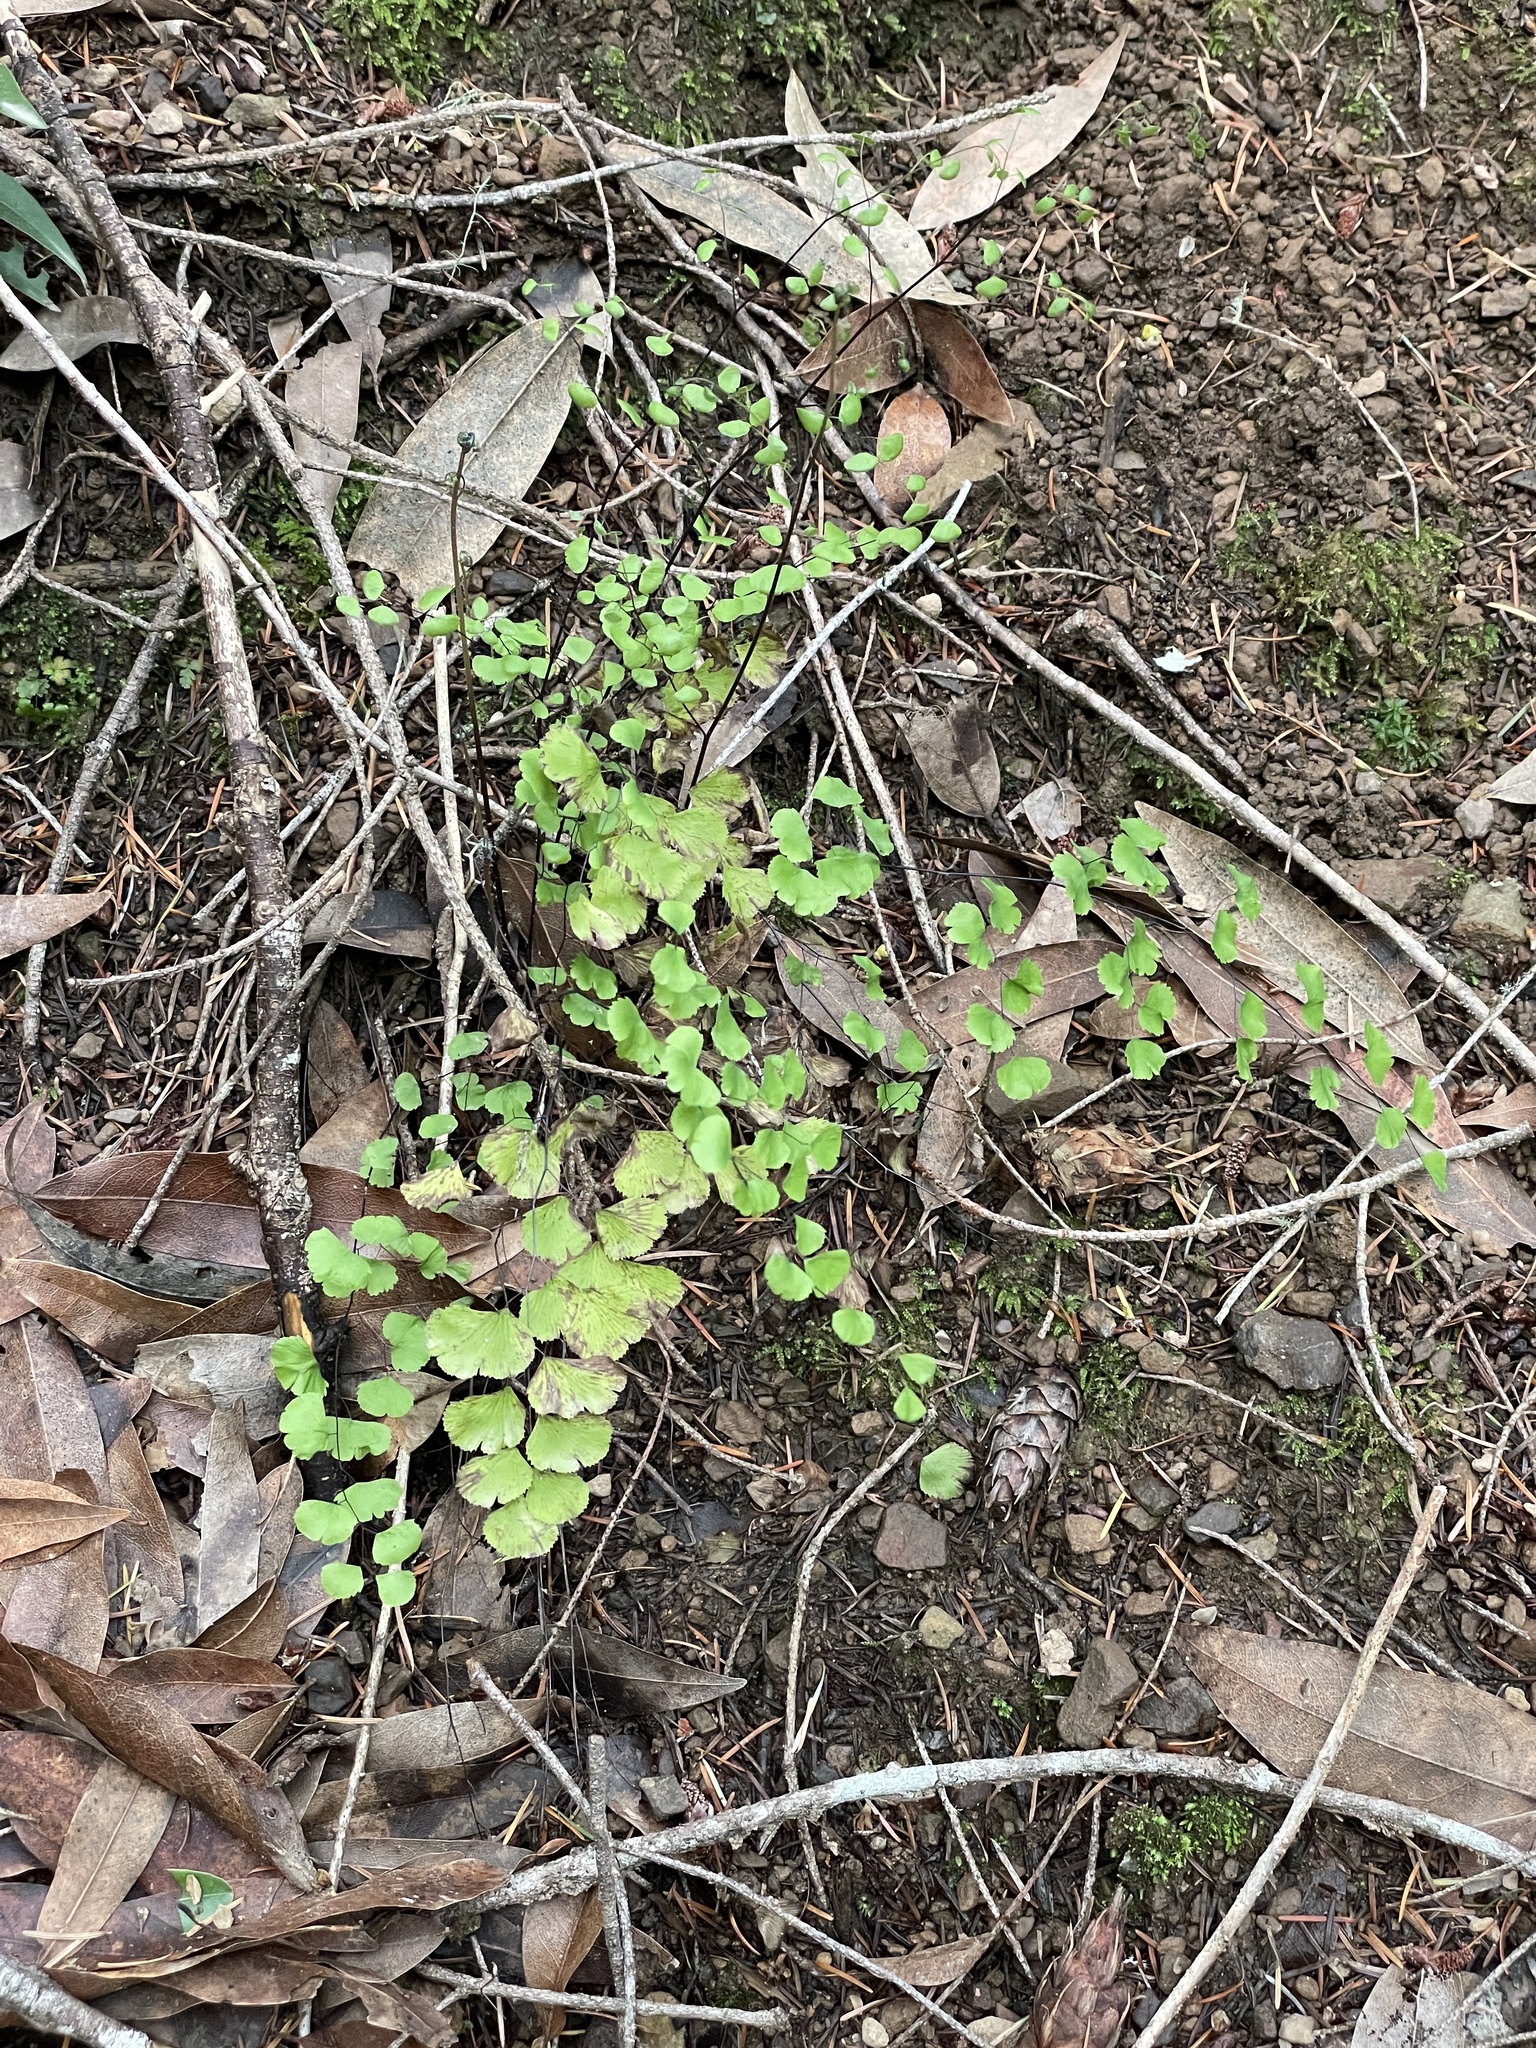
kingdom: Plantae
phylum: Tracheophyta
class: Polypodiopsida
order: Polypodiales
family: Pteridaceae
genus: Adiantum
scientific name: Adiantum jordanii
